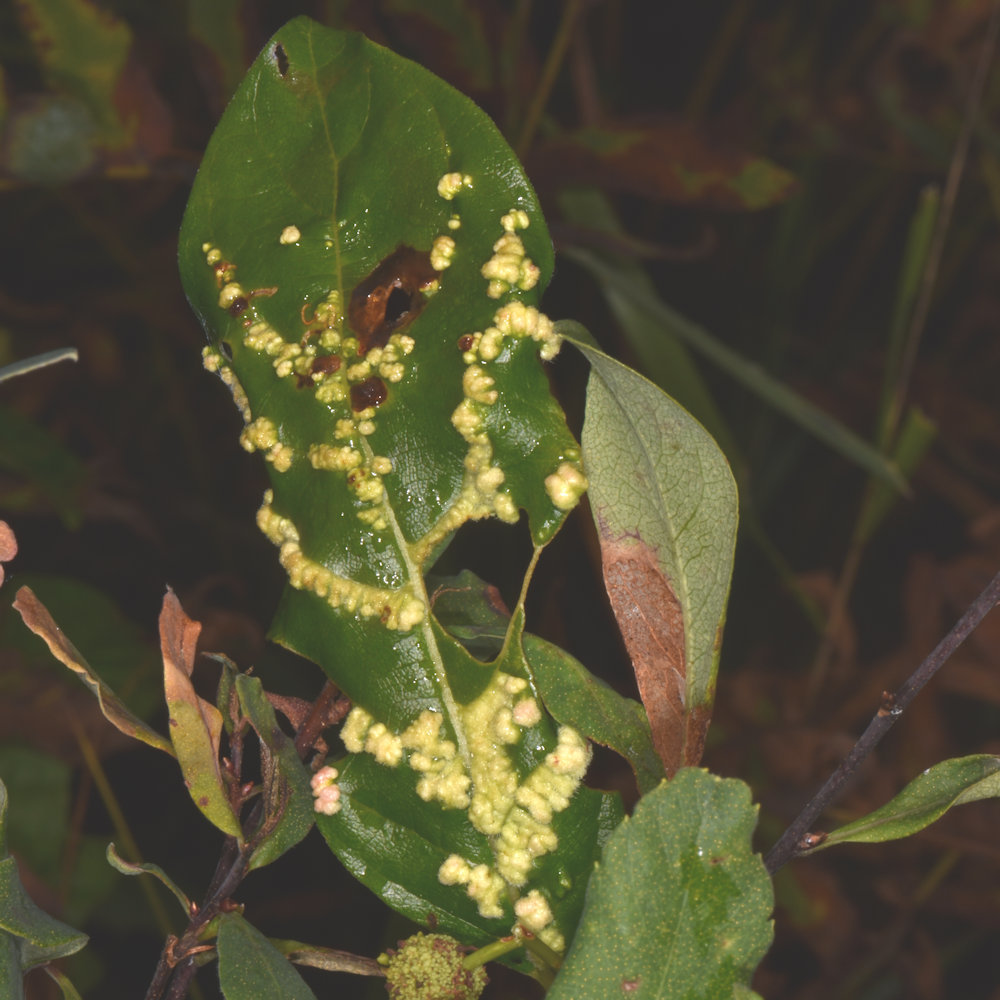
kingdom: Animalia
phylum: Arthropoda
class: Arachnida
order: Trombidiformes
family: Eriophyidae
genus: Aceria
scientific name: Aceria
